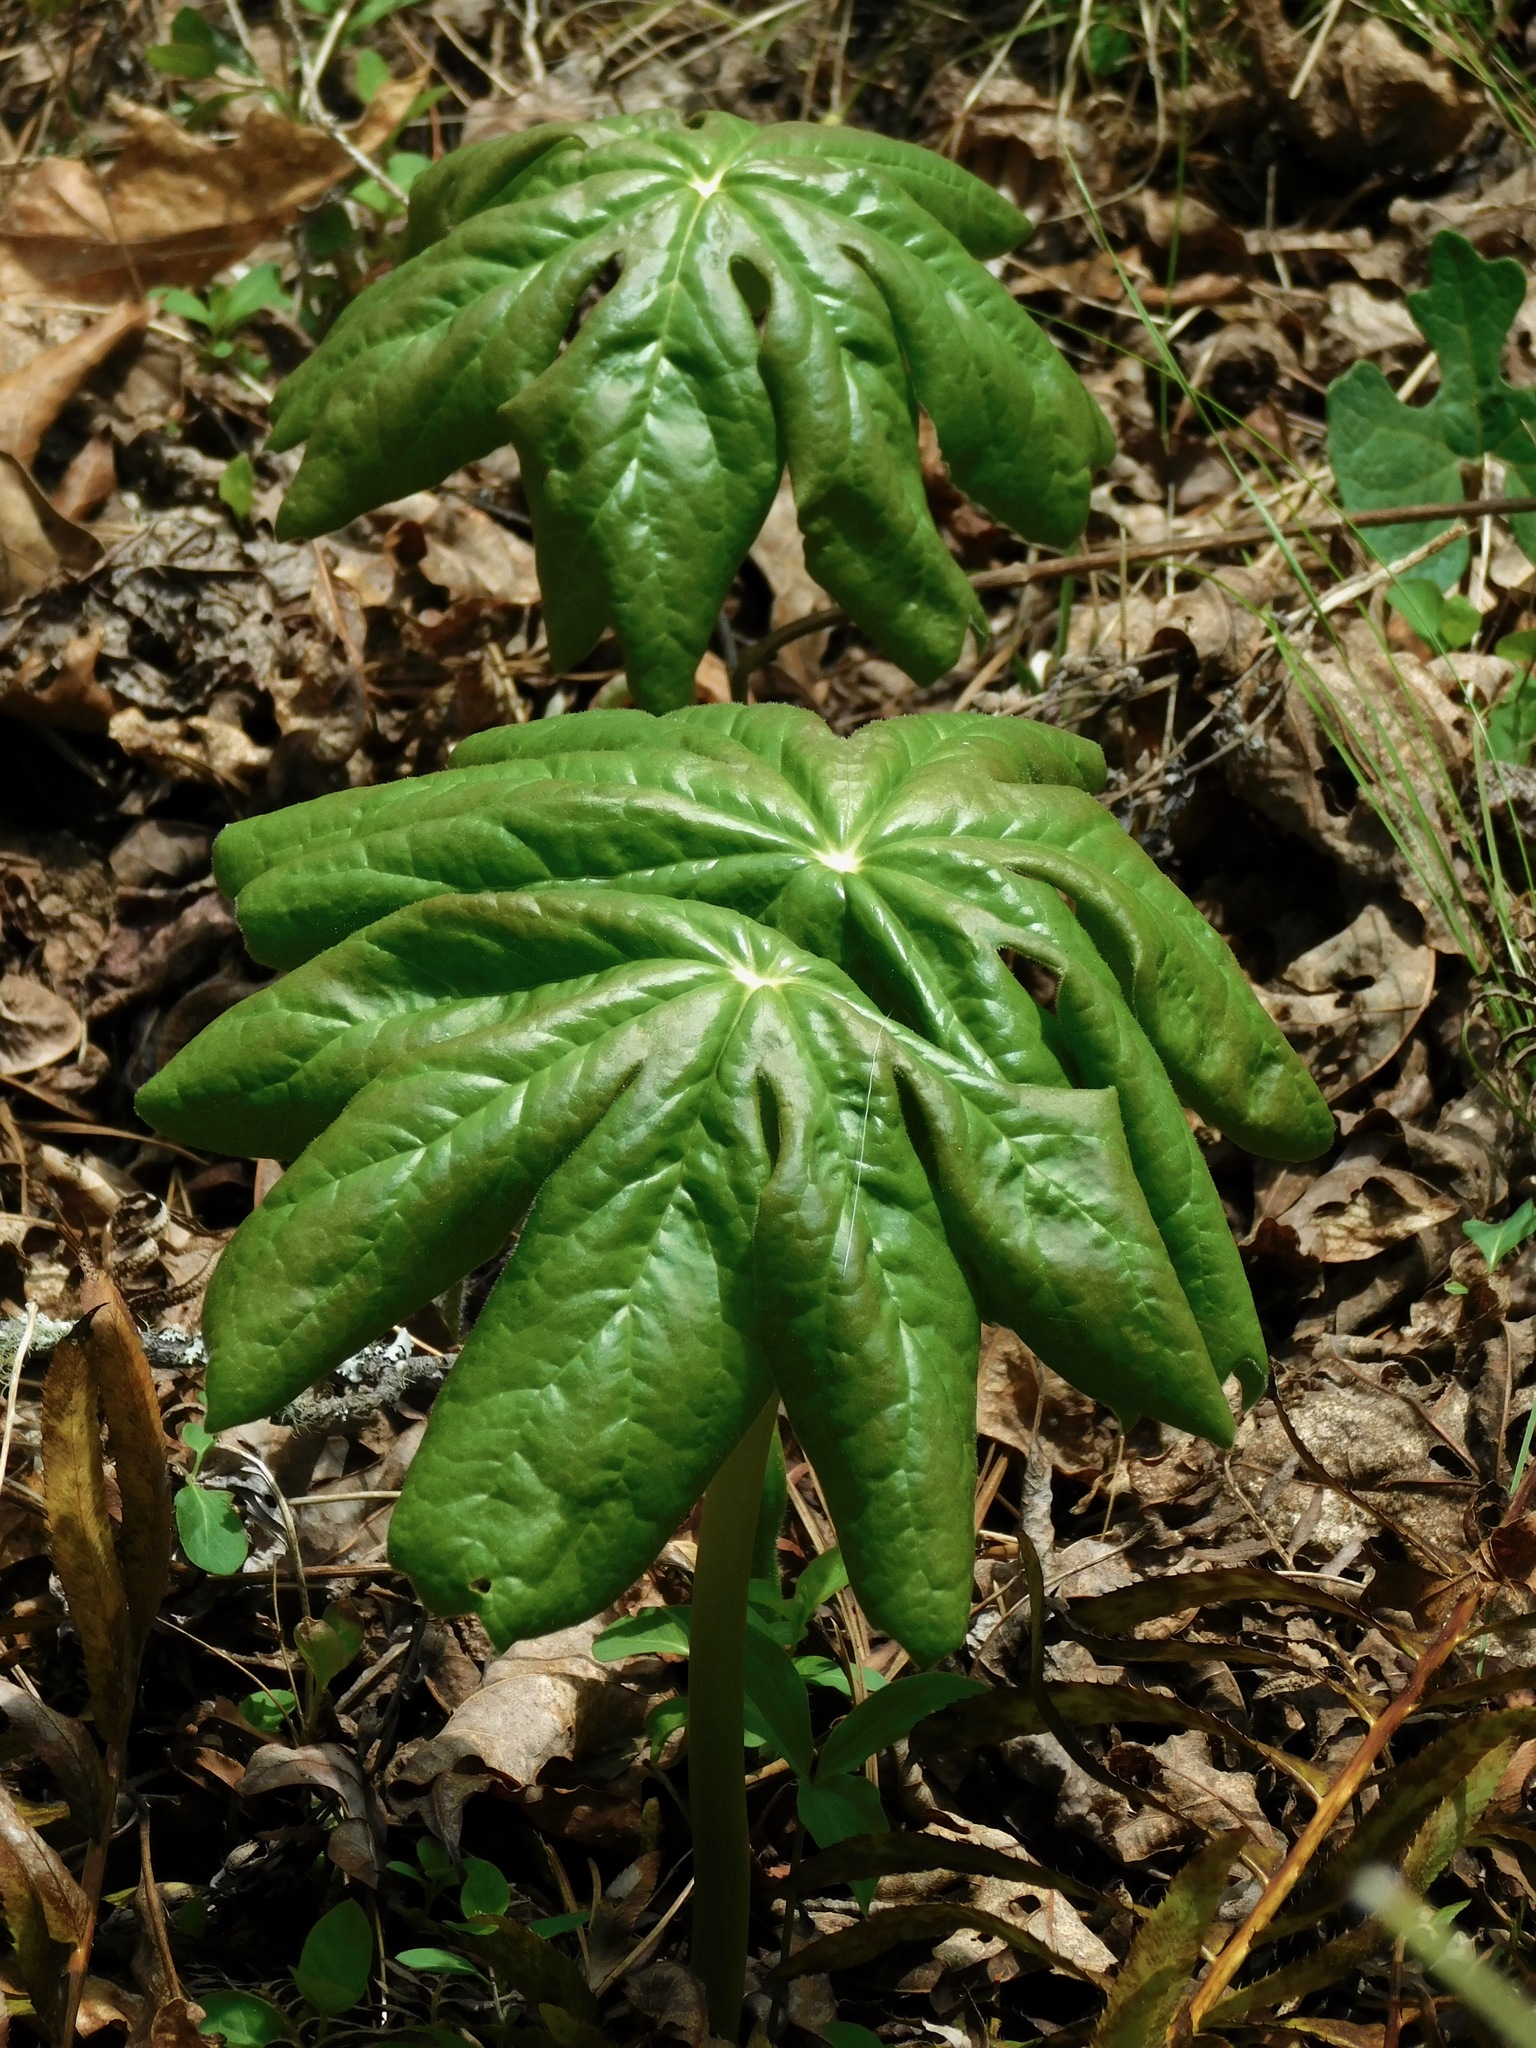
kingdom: Plantae
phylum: Tracheophyta
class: Magnoliopsida
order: Ranunculales
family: Berberidaceae
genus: Podophyllum
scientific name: Podophyllum peltatum
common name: Wild mandrake
